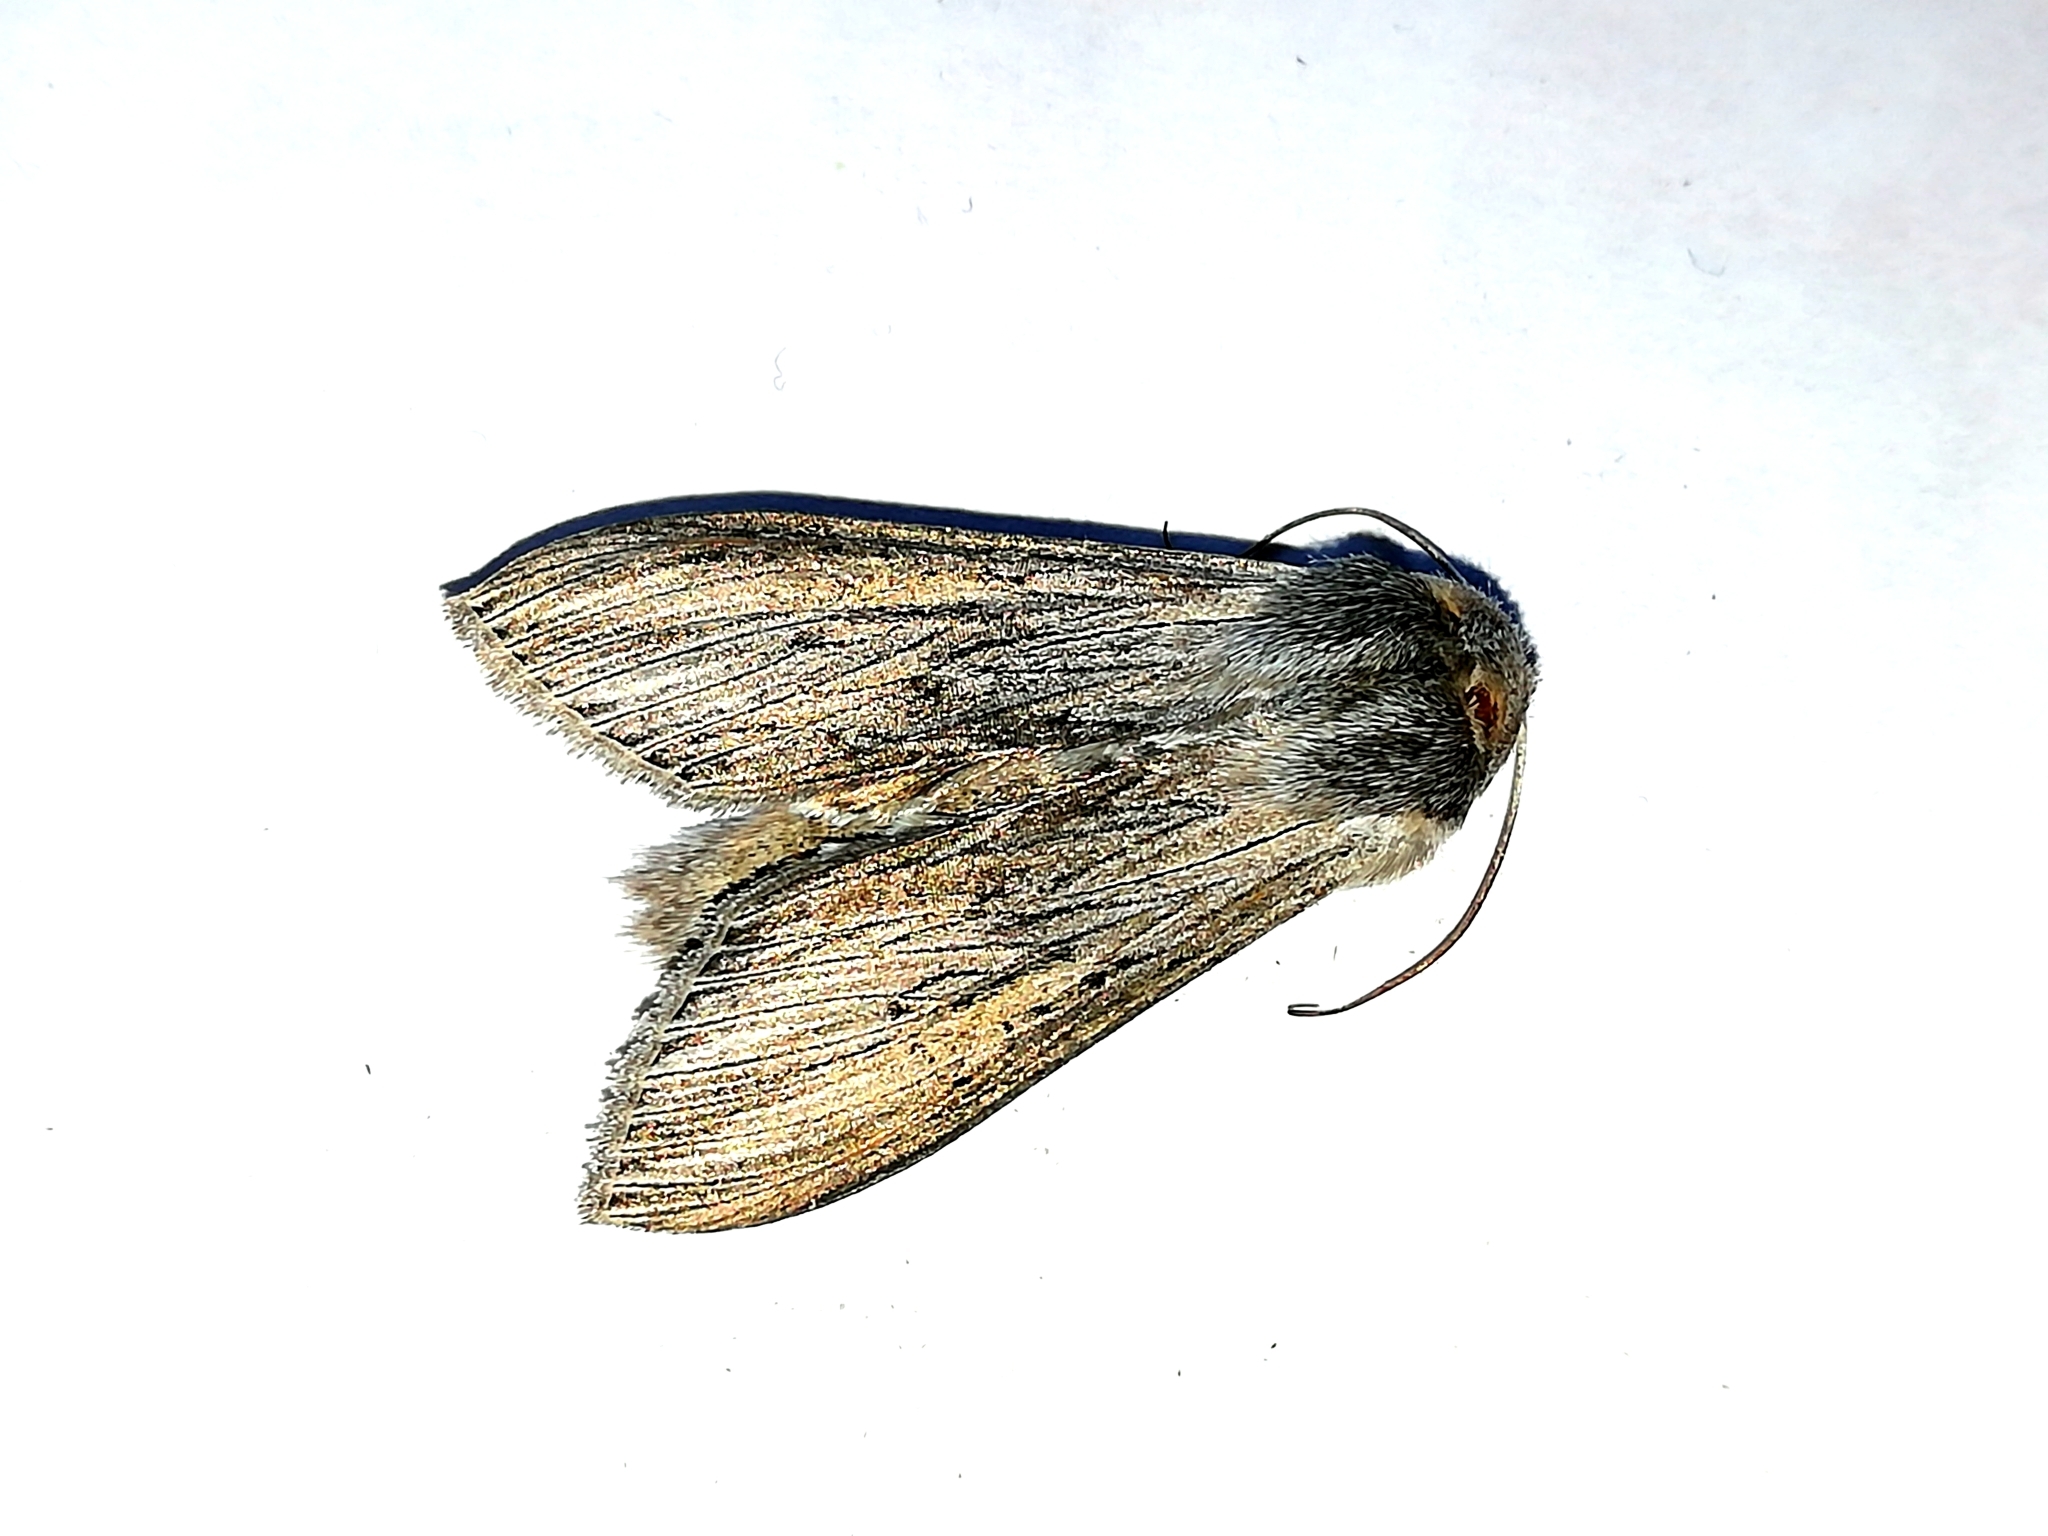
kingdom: Animalia
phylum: Arthropoda
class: Insecta
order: Lepidoptera
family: Noctuidae
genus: Cucullia
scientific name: Cucullia pustulata
